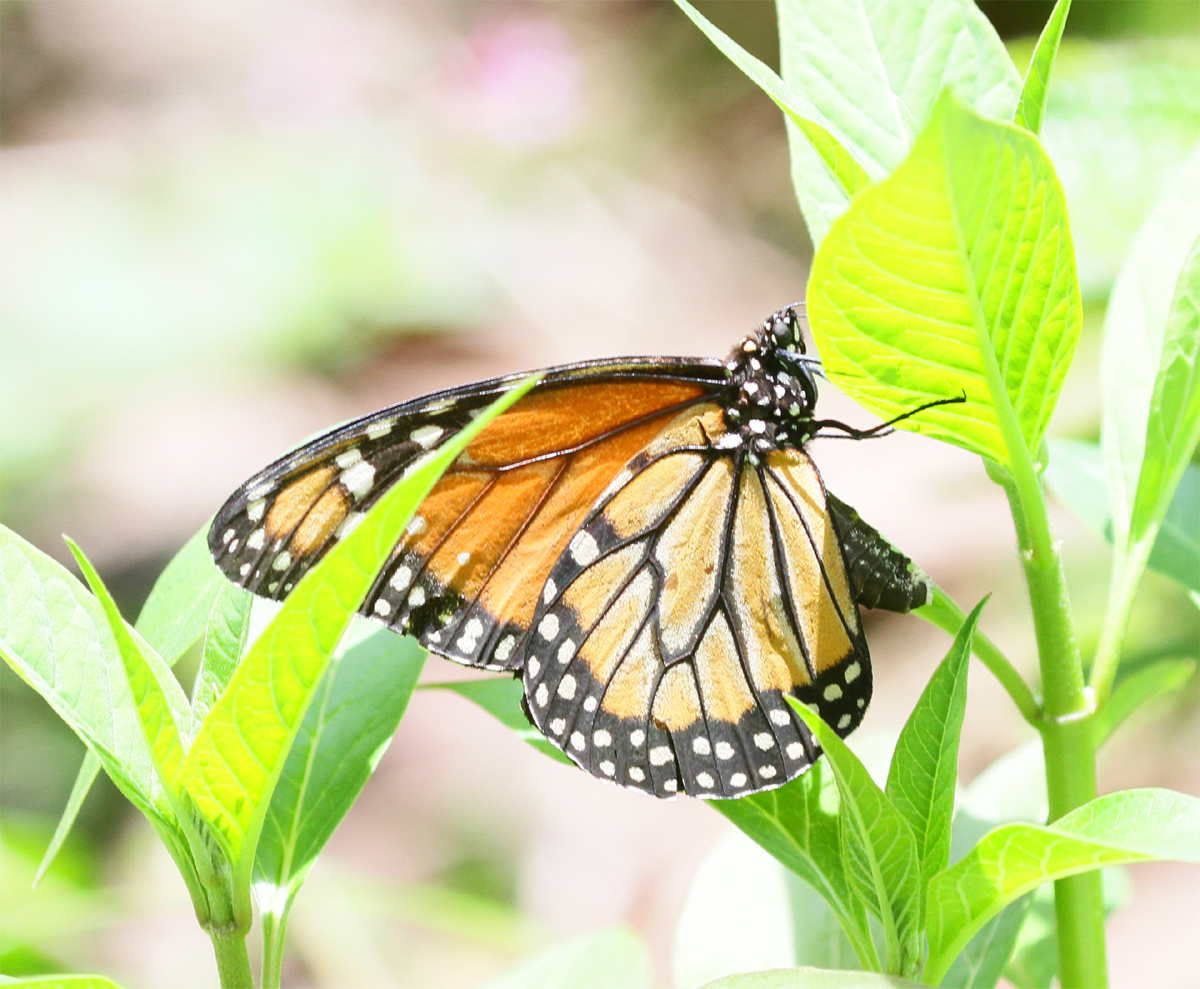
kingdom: Animalia
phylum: Arthropoda
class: Insecta
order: Lepidoptera
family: Nymphalidae
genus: Danaus
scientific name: Danaus erippus
